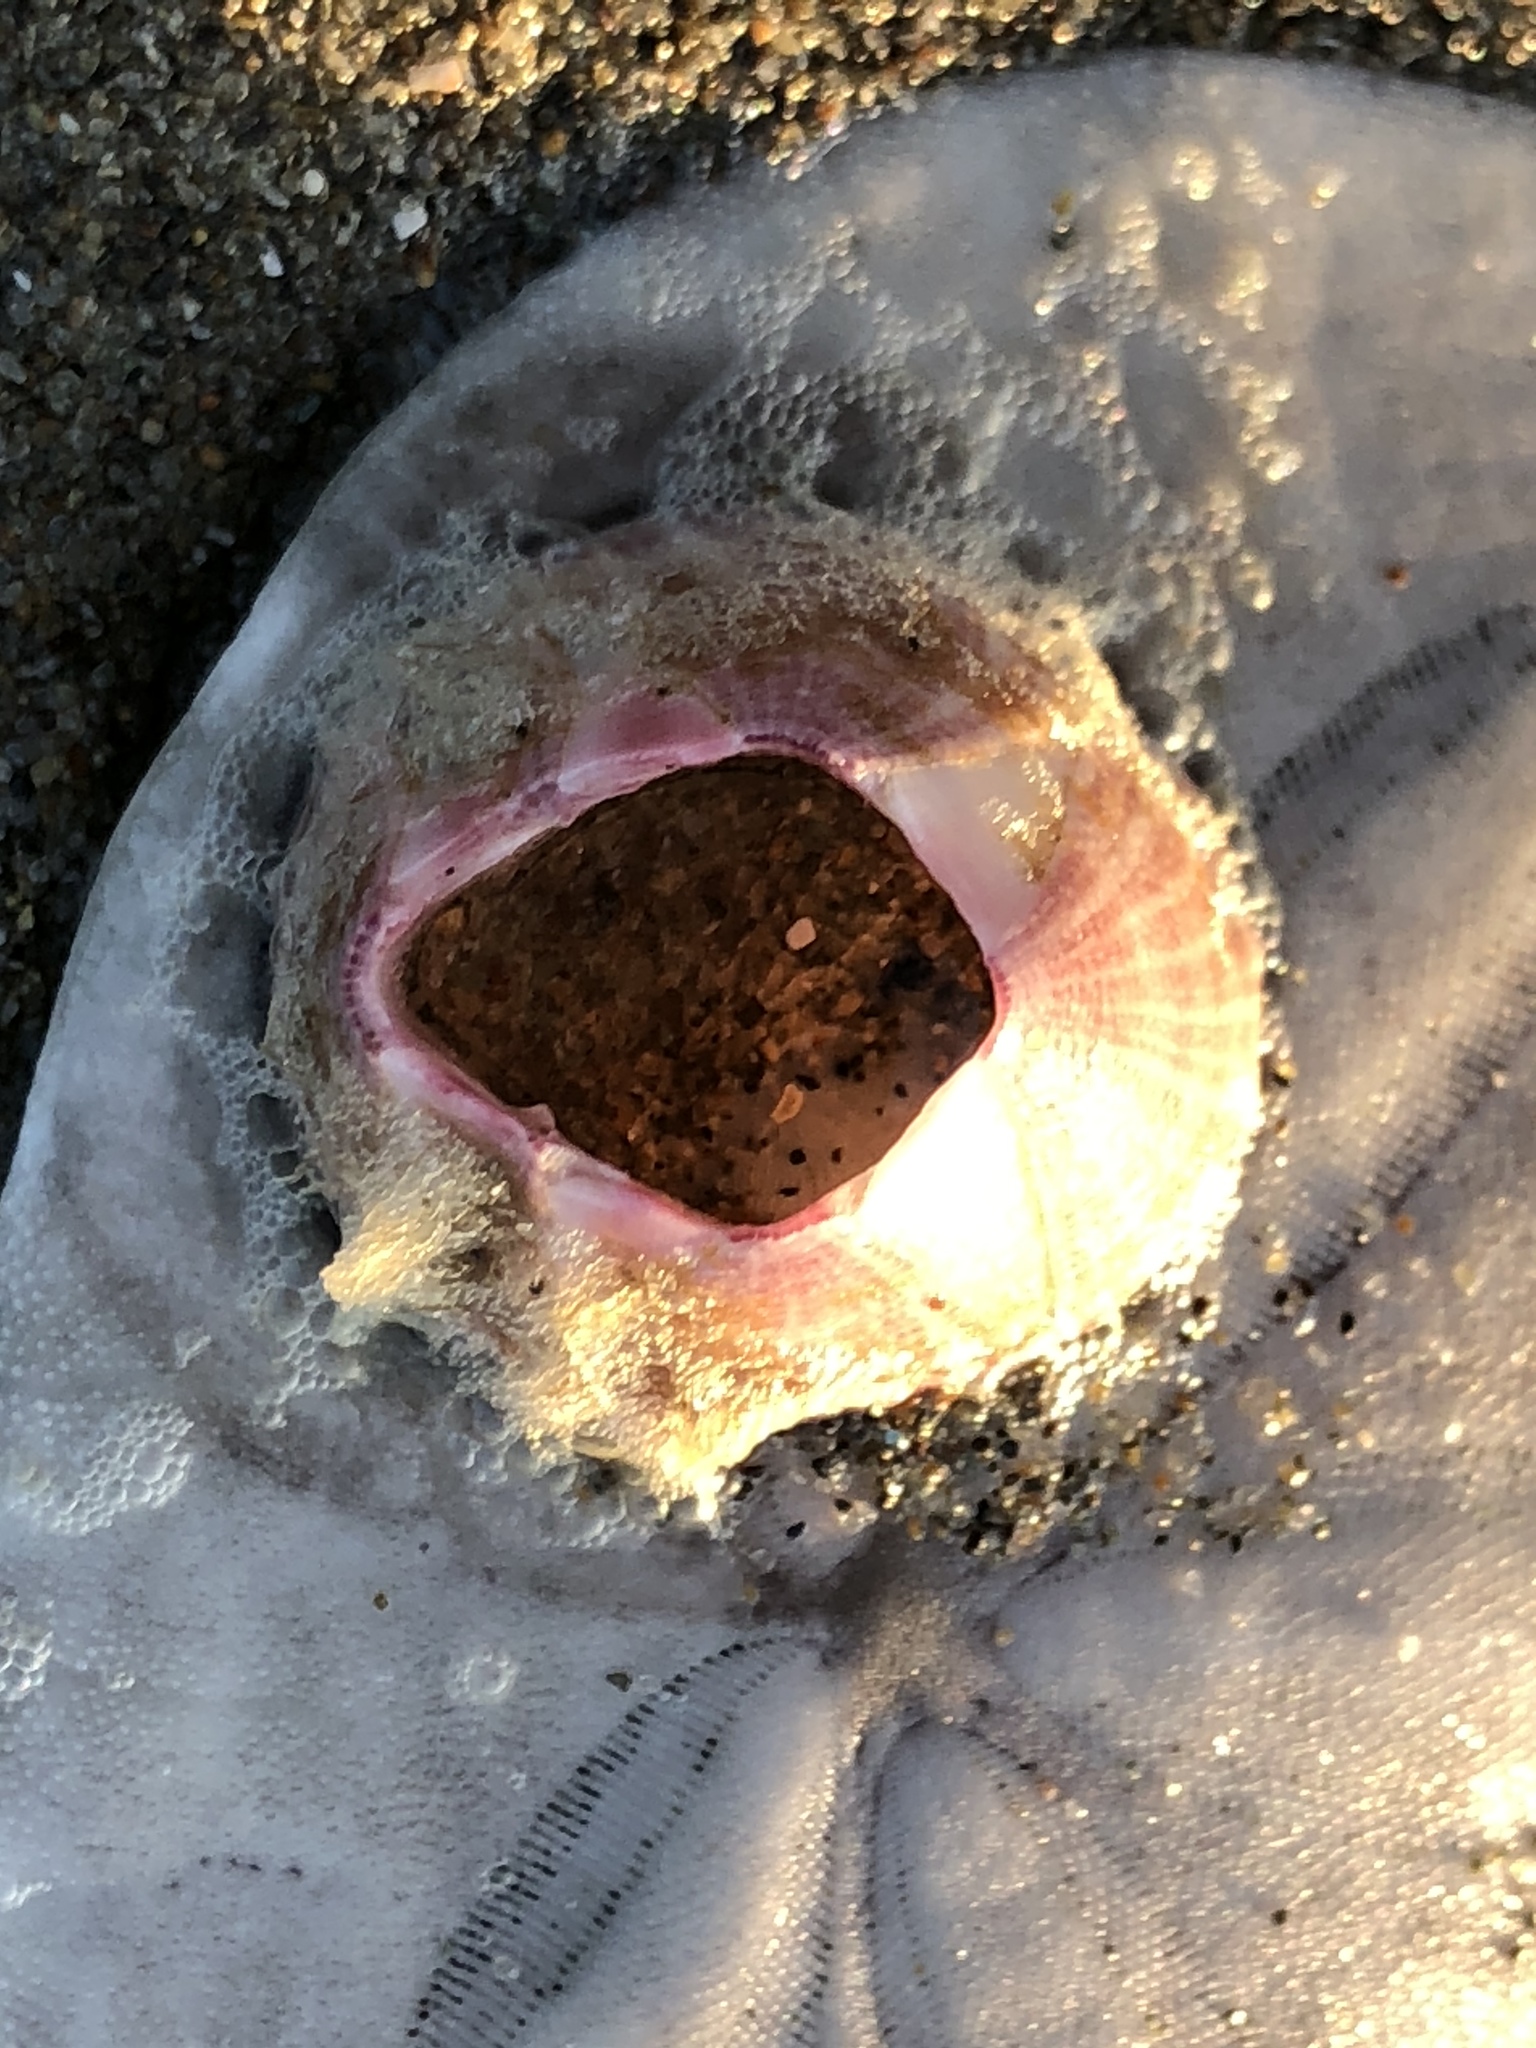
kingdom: Animalia
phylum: Arthropoda
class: Maxillopoda
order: Sessilia
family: Balanidae
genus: Paraconcavus
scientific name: Paraconcavus pacificus
